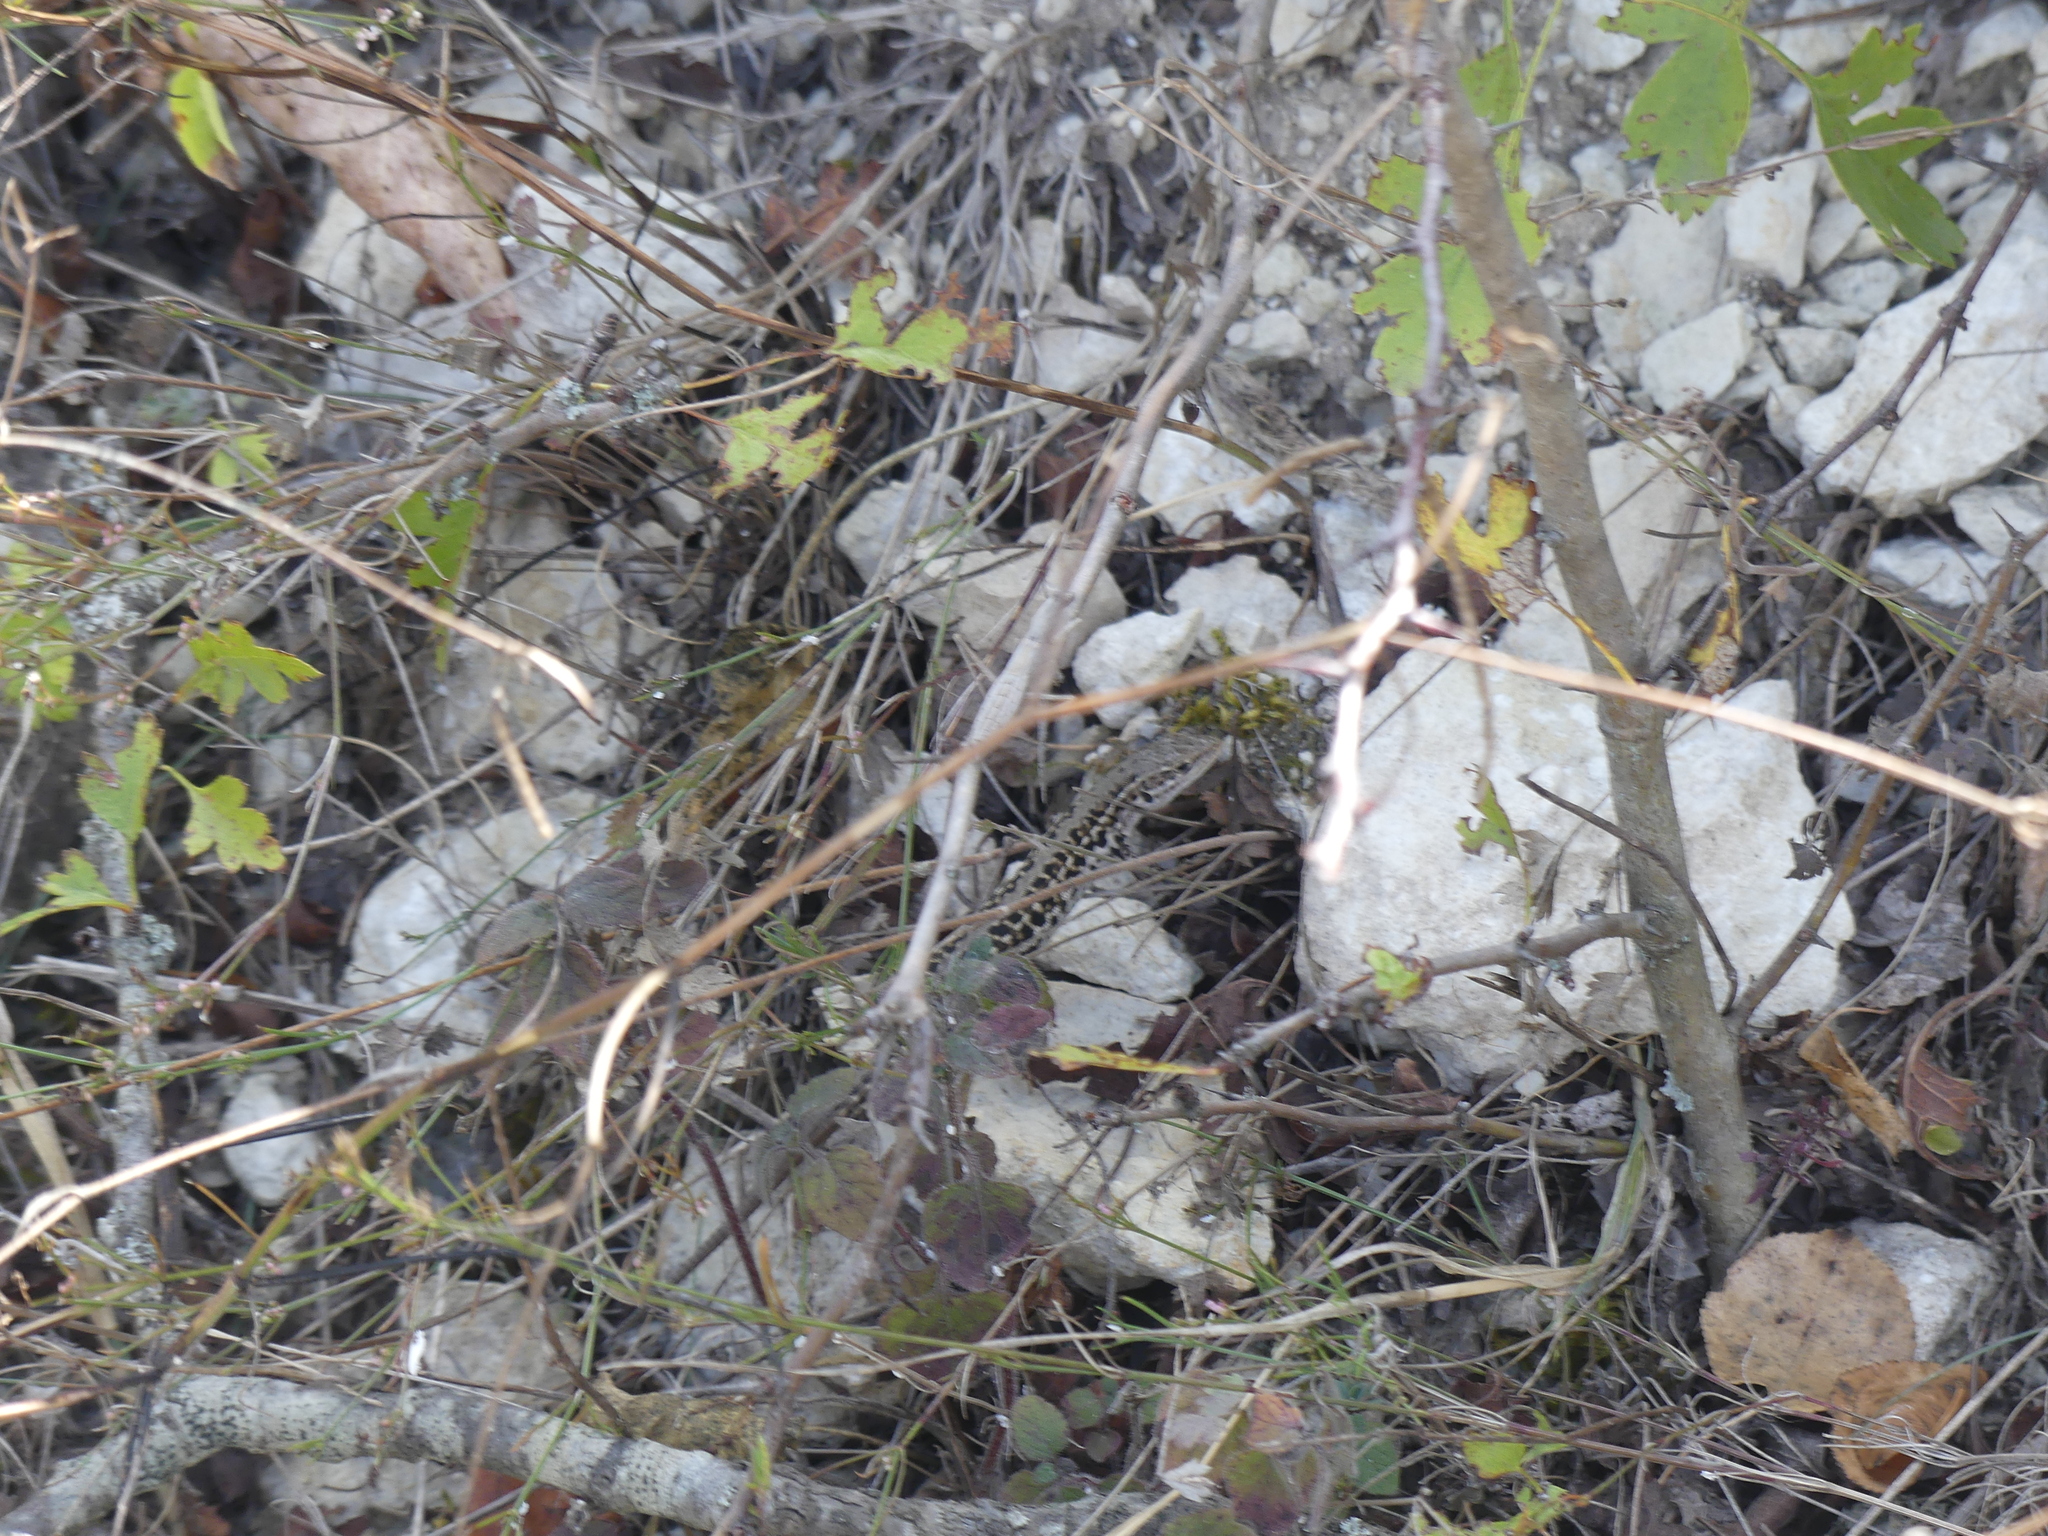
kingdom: Animalia
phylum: Chordata
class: Squamata
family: Lacertidae
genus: Podarcis
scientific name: Podarcis tauricus
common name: Balkan wall lizard
